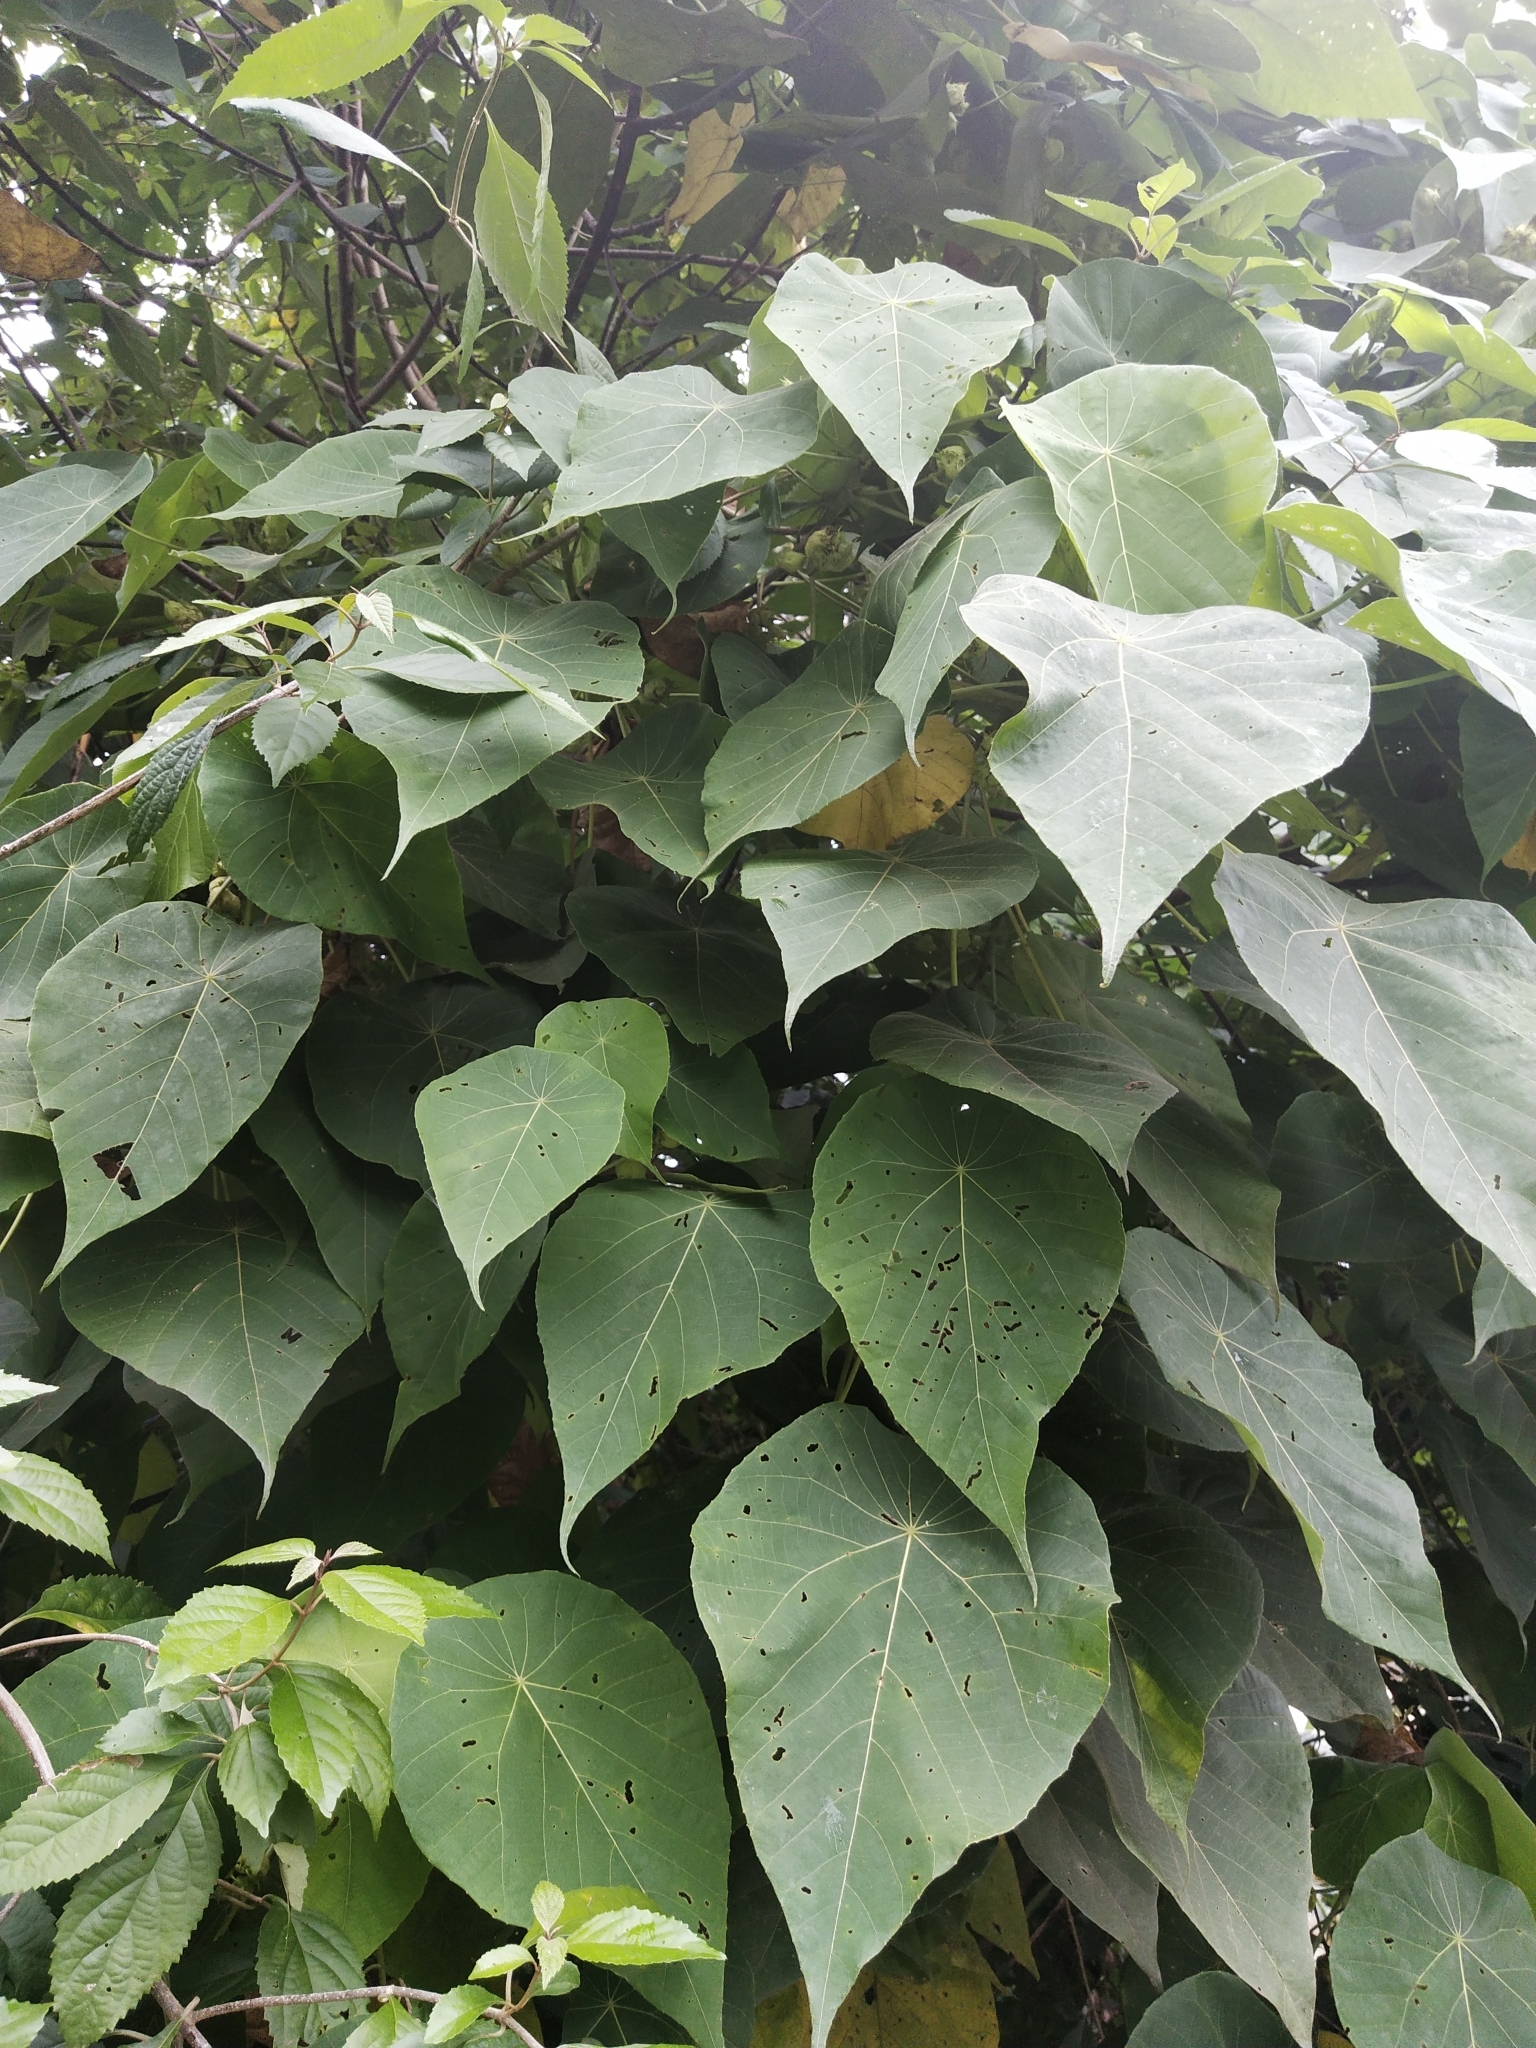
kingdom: Plantae
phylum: Tracheophyta
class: Magnoliopsida
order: Malpighiales
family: Euphorbiaceae
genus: Macaranga
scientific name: Macaranga tanarius
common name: Parasol leaf tree
